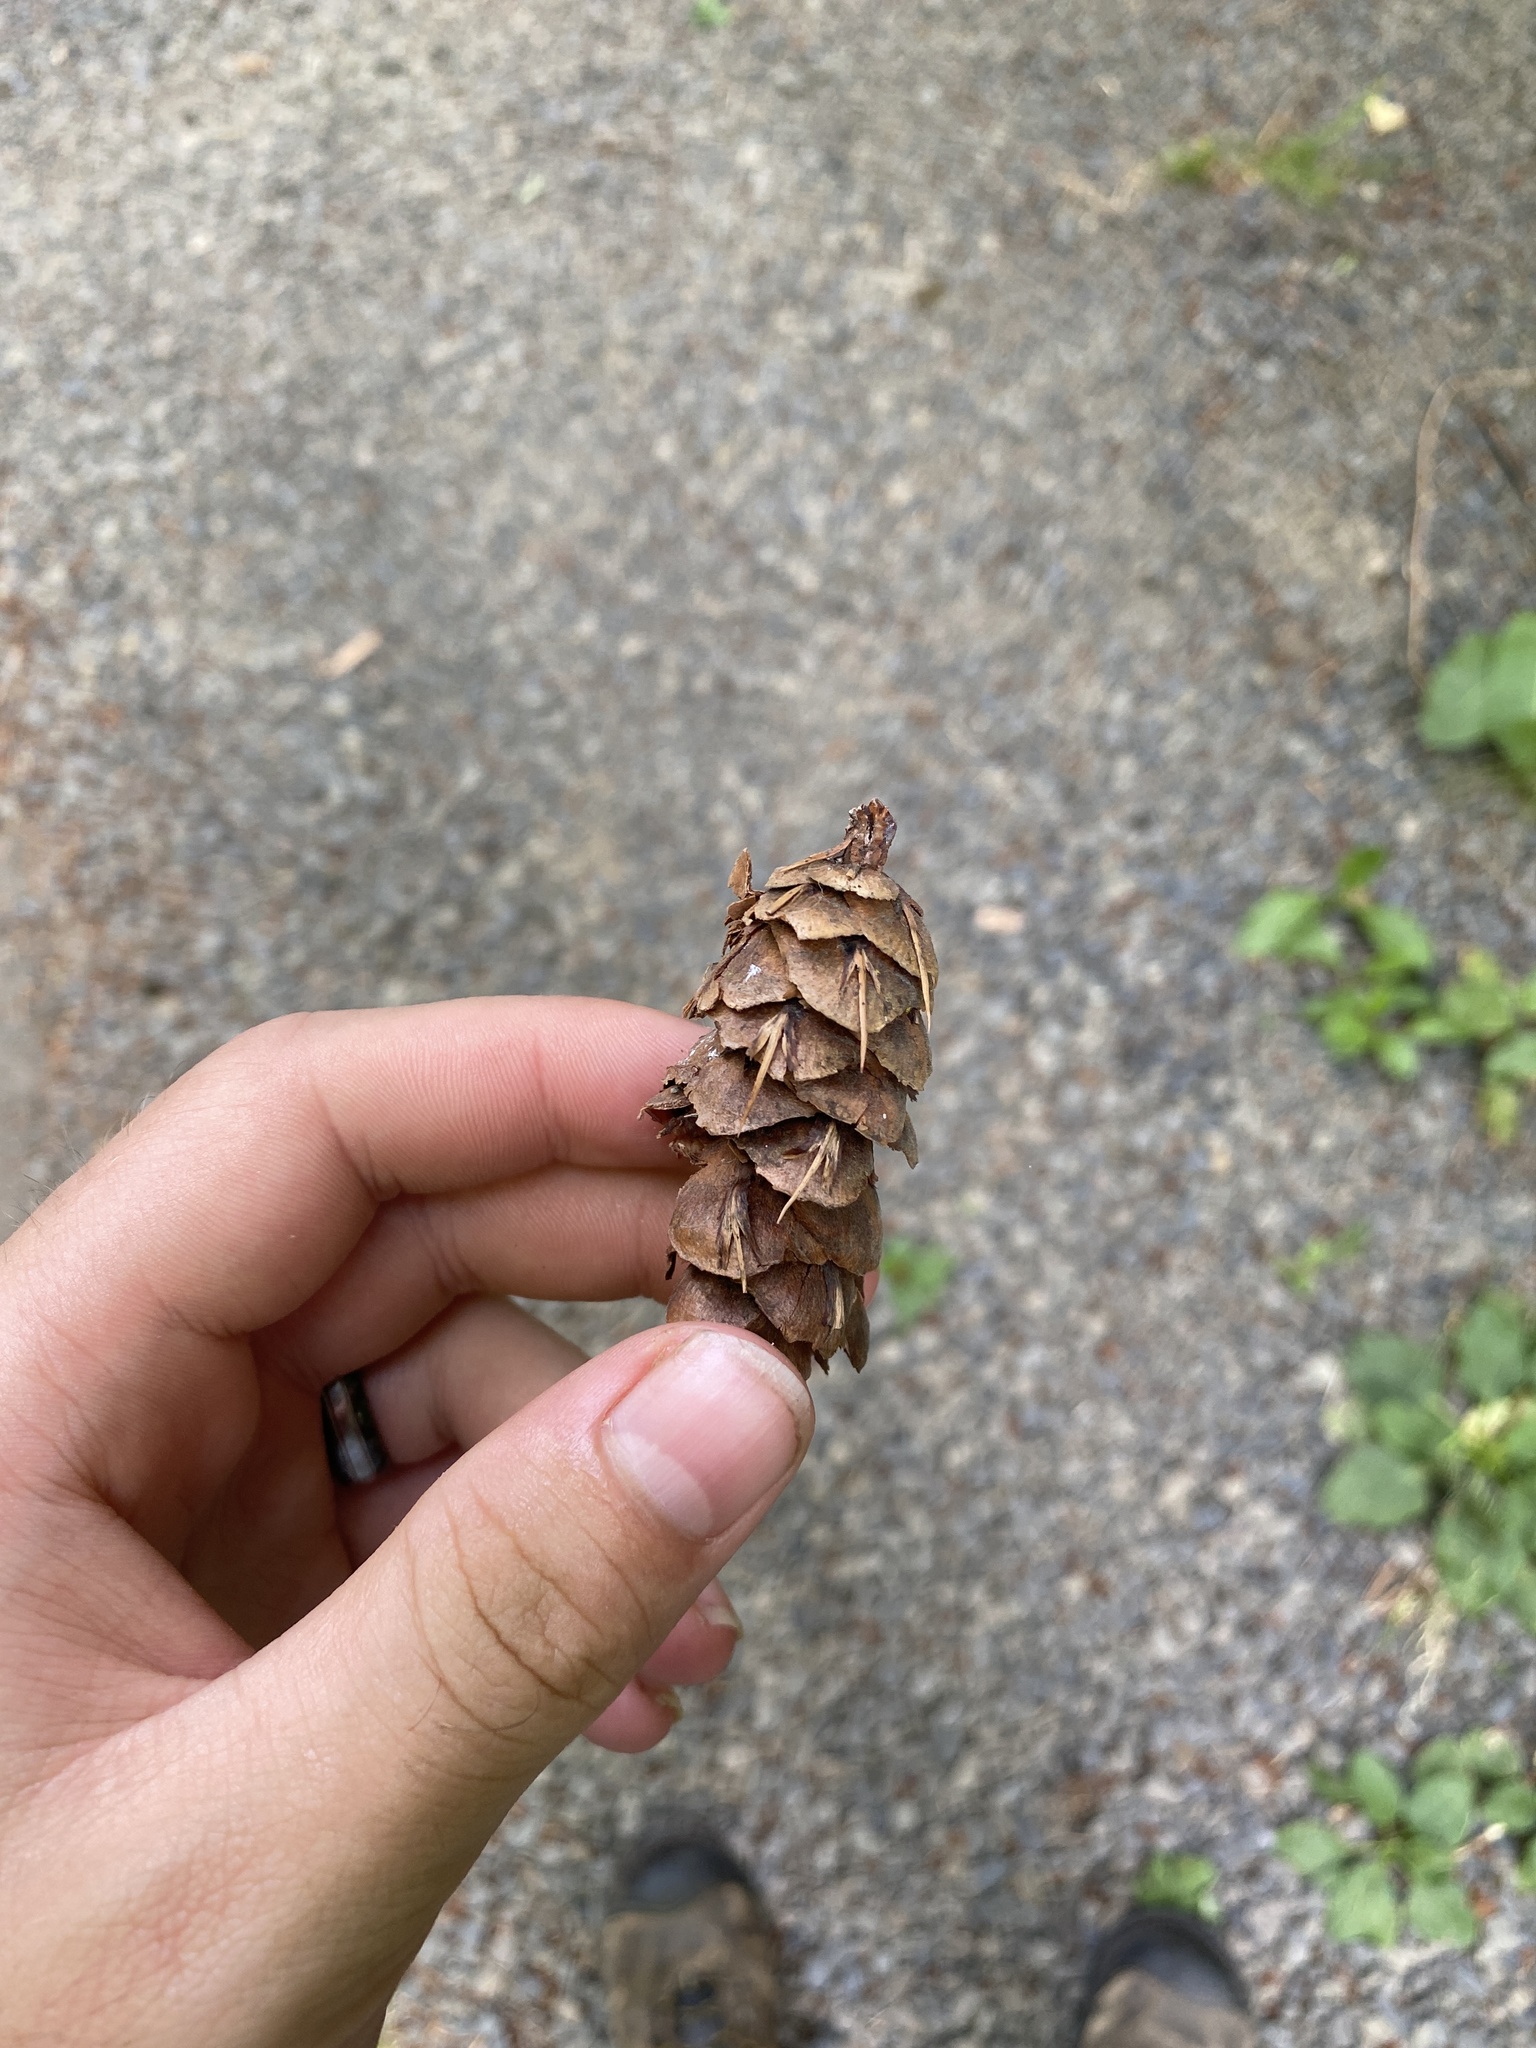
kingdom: Plantae
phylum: Tracheophyta
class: Pinopsida
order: Pinales
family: Pinaceae
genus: Pseudotsuga
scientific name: Pseudotsuga menziesii
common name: Douglas fir
